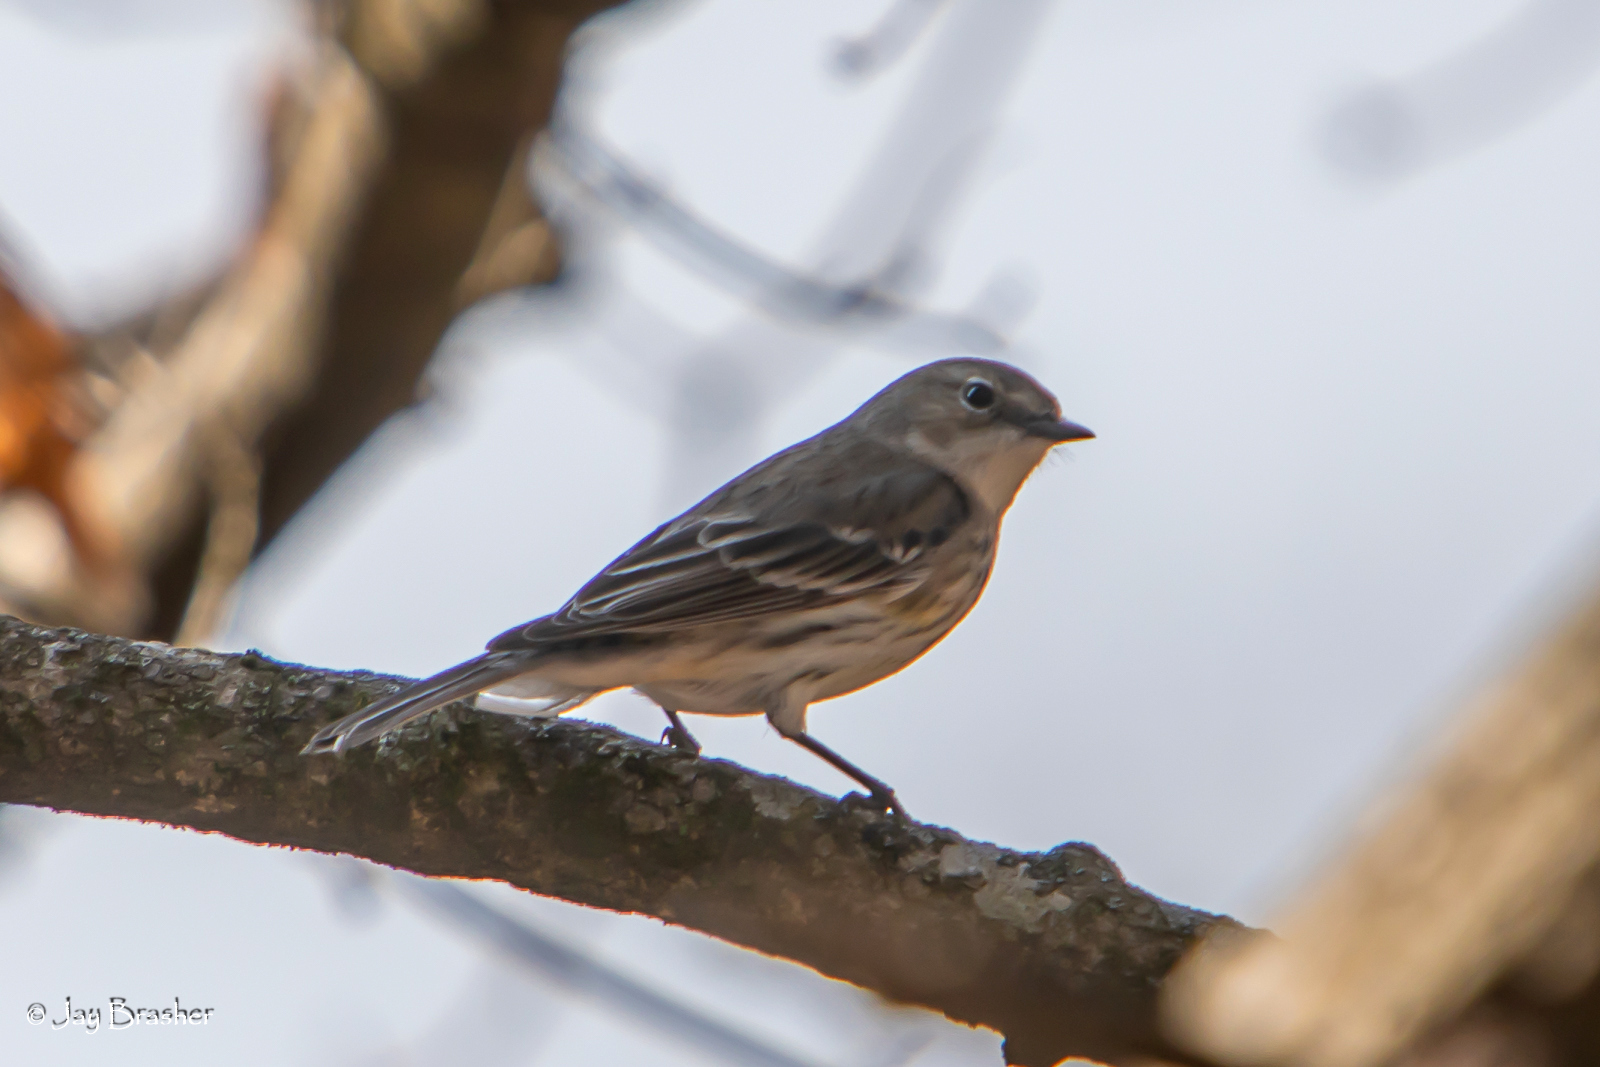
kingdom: Animalia
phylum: Chordata
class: Aves
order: Passeriformes
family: Parulidae
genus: Setophaga
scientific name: Setophaga coronata
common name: Myrtle warbler
